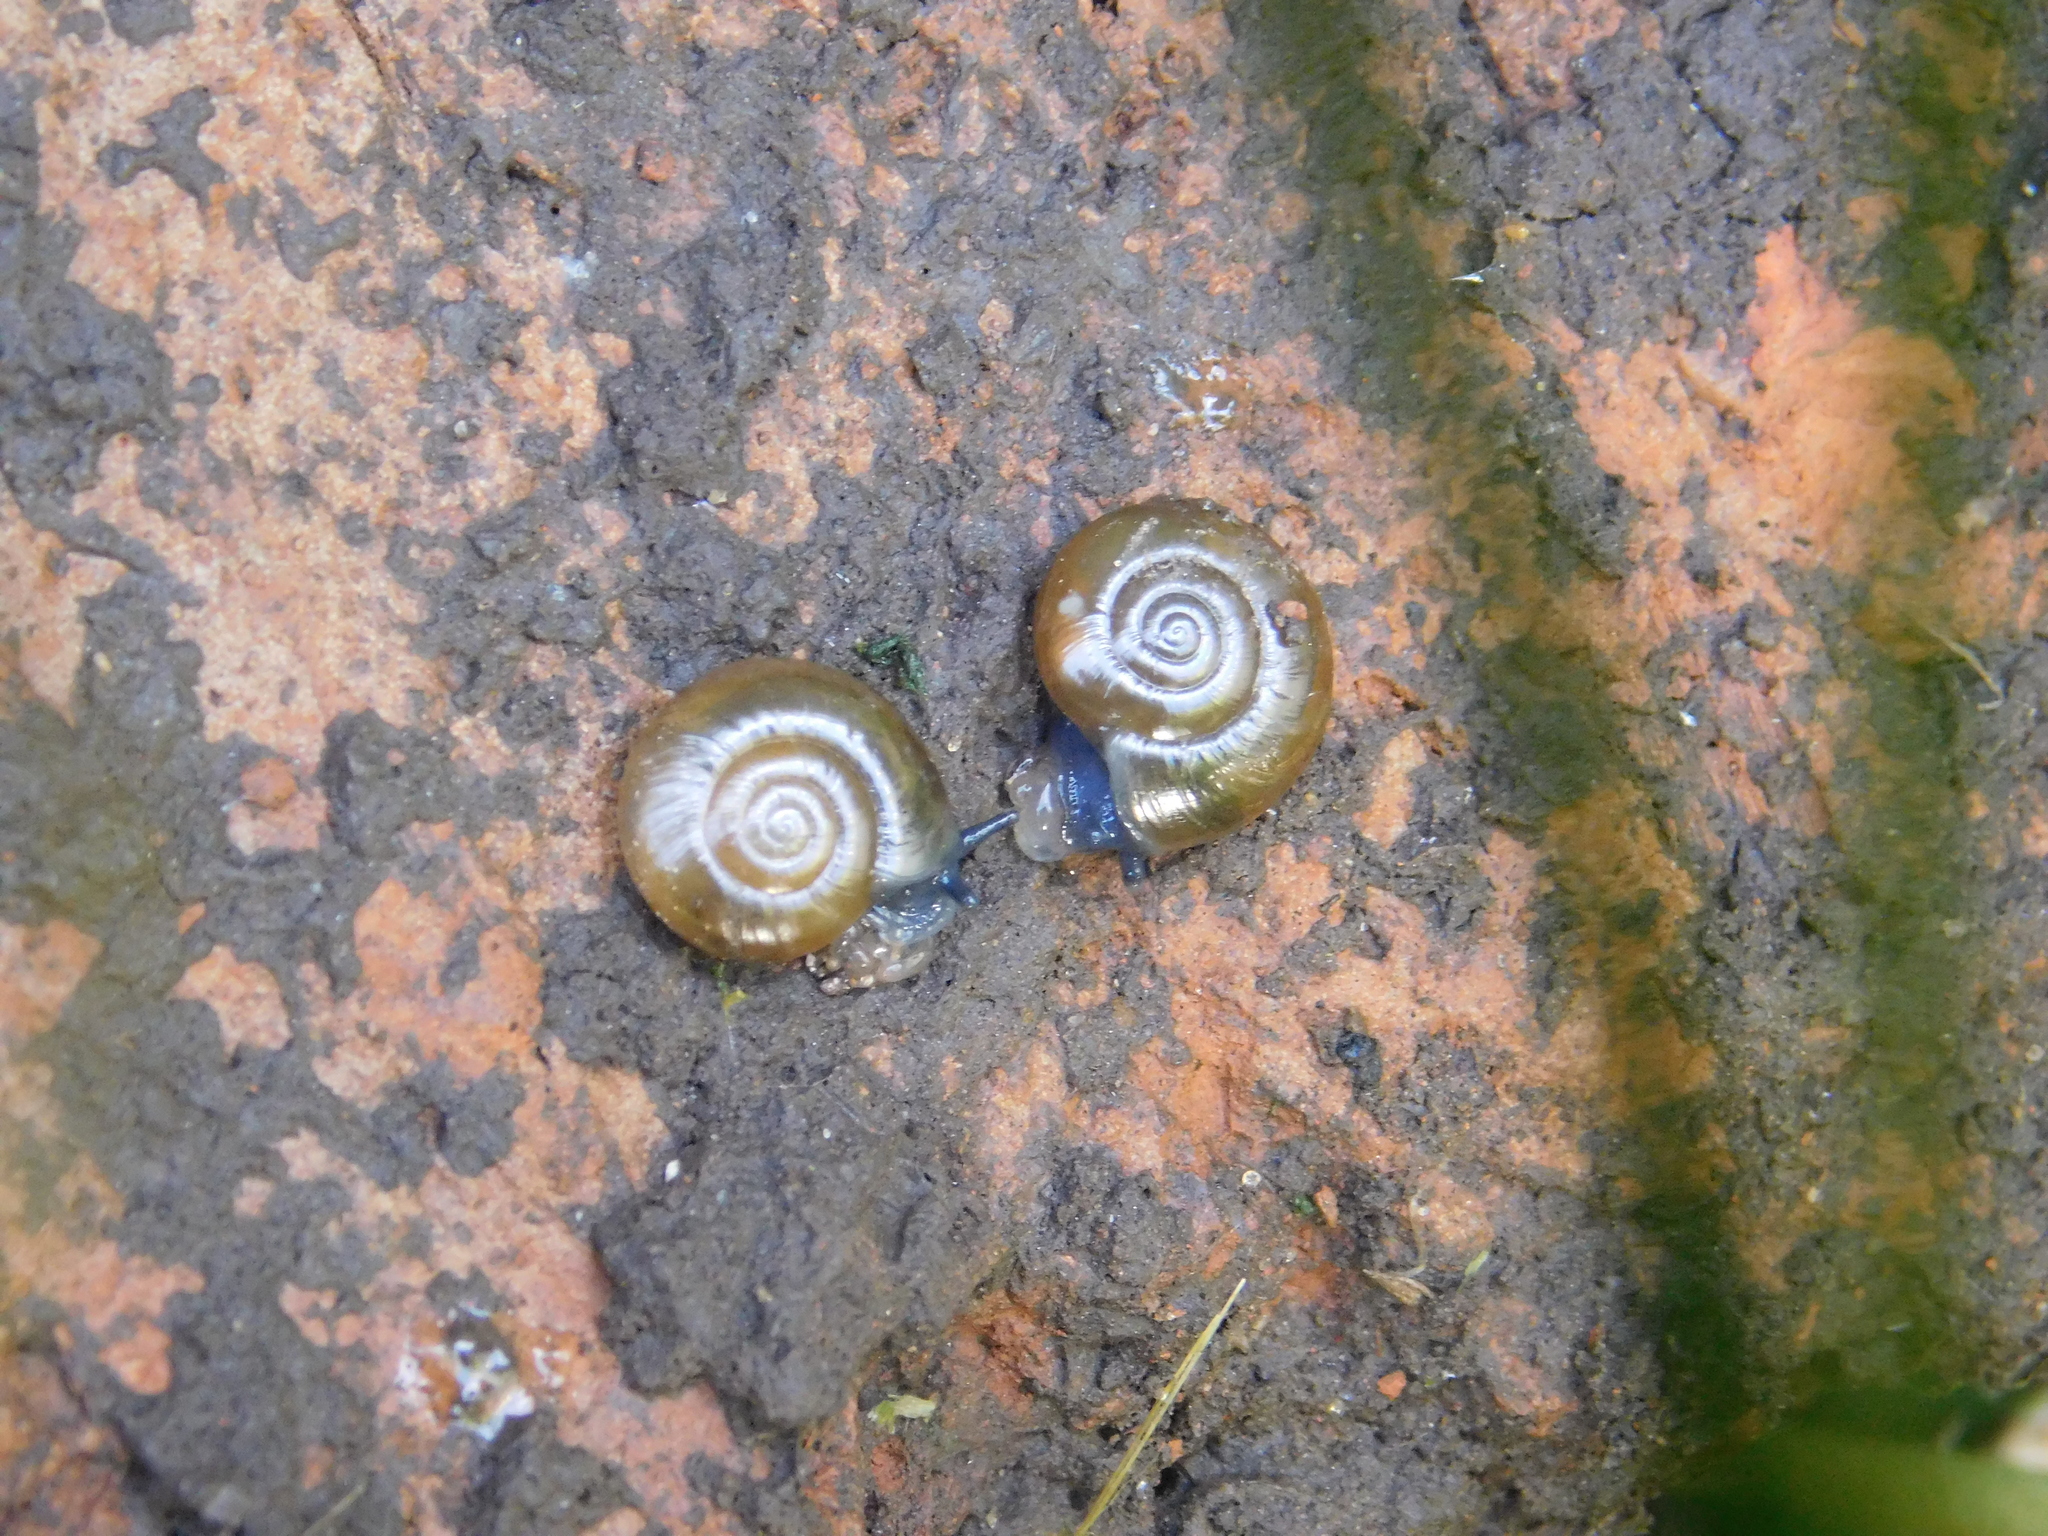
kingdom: Animalia
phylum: Mollusca
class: Gastropoda
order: Stylommatophora
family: Oxychilidae
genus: Oxychilus
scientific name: Oxychilus draparnaudi
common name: Draparnaud's glass snail
